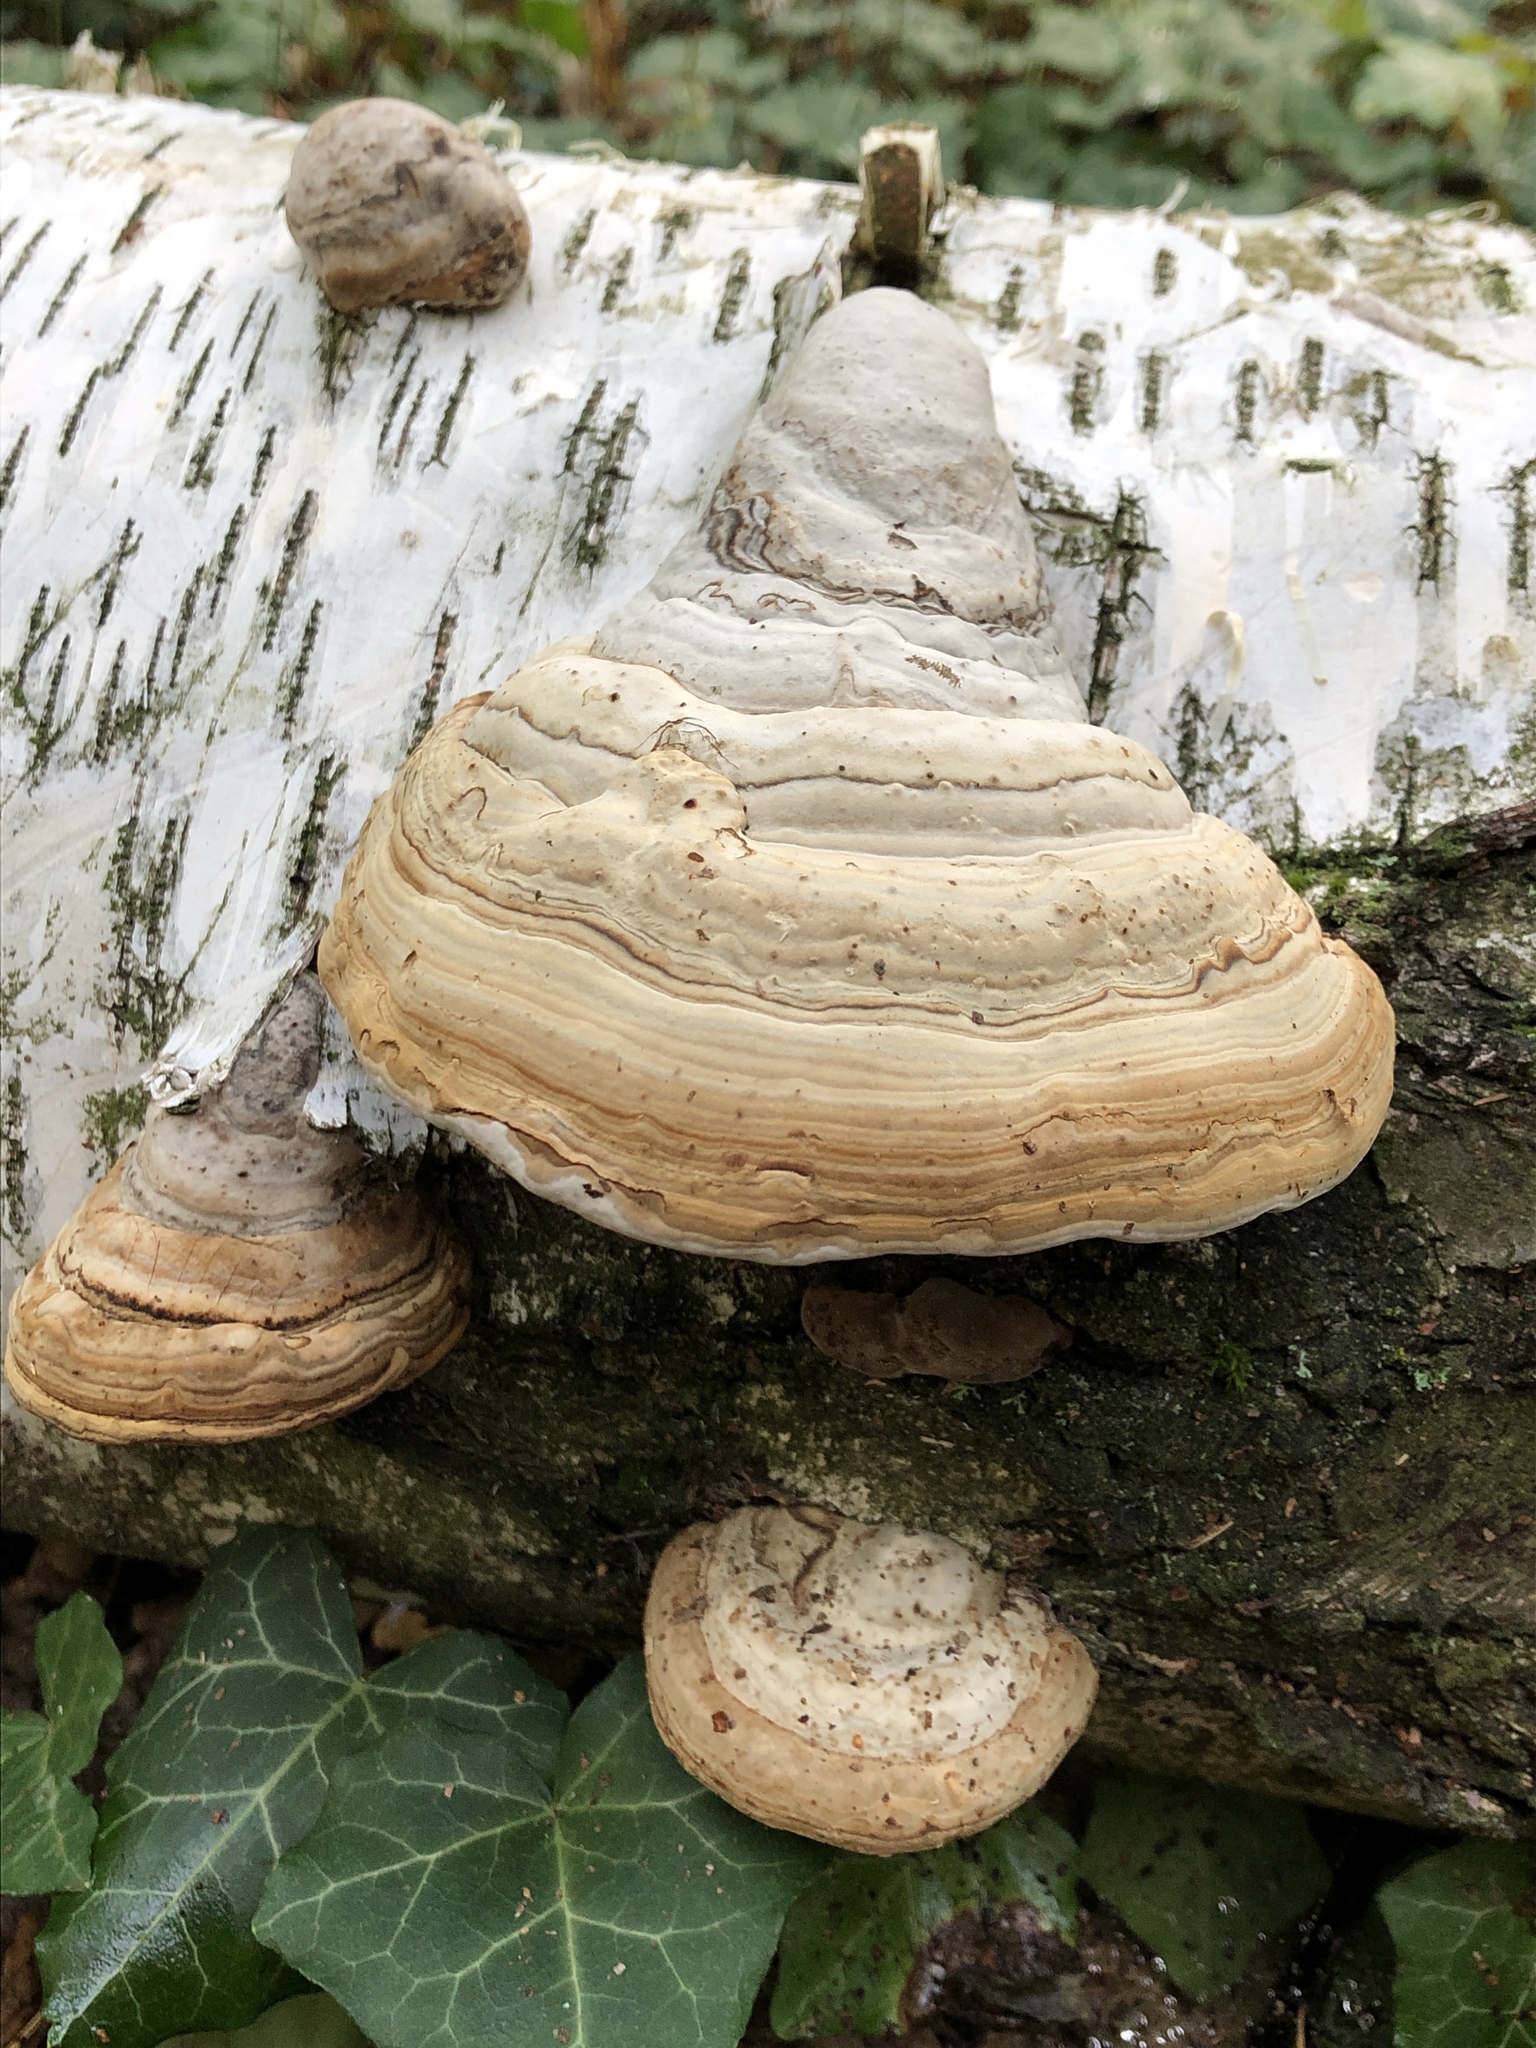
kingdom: Fungi
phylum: Basidiomycota
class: Agaricomycetes
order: Polyporales
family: Polyporaceae
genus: Fomes
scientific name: Fomes fomentarius
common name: Hoof fungus
